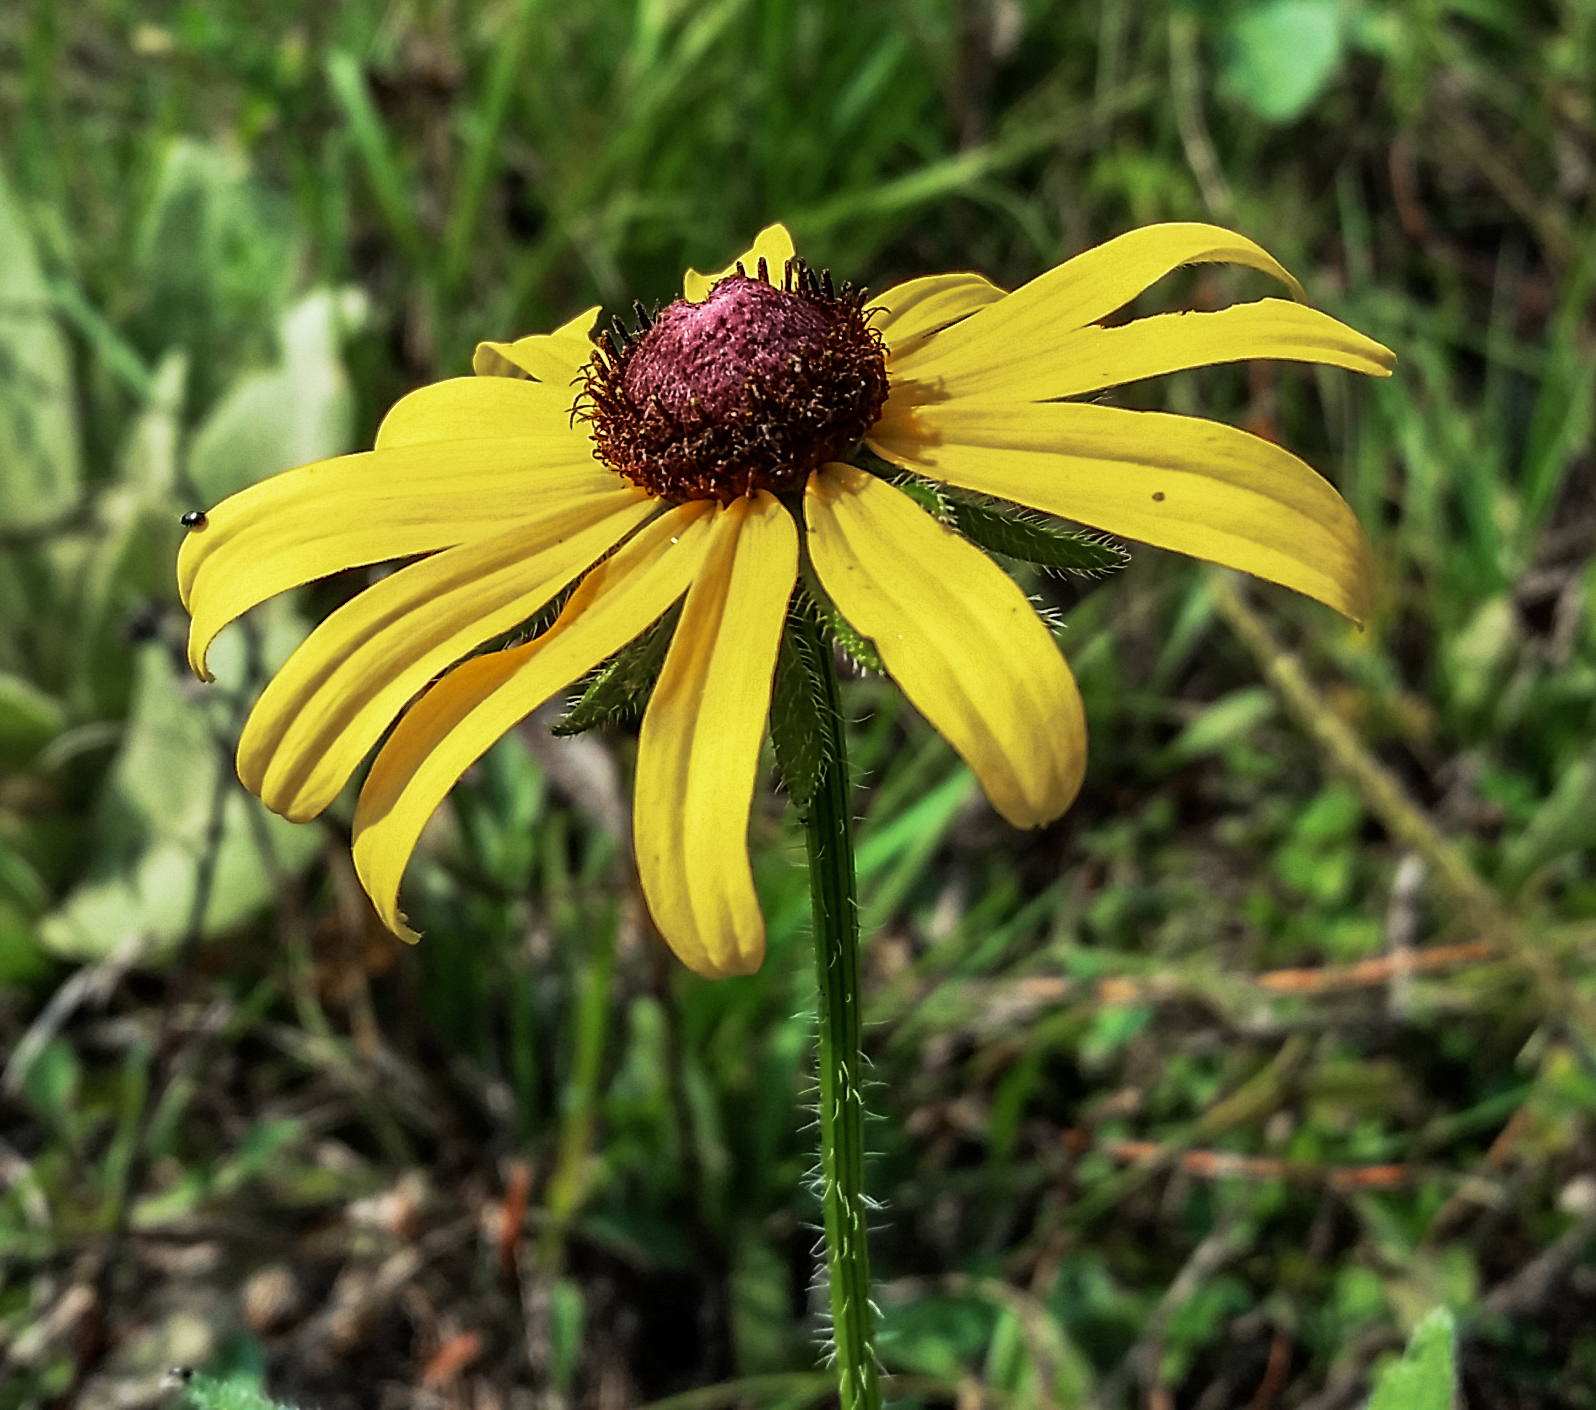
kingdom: Plantae
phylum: Tracheophyta
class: Magnoliopsida
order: Asterales
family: Asteraceae
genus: Rudbeckia
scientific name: Rudbeckia hirta
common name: Black-eyed-susan
